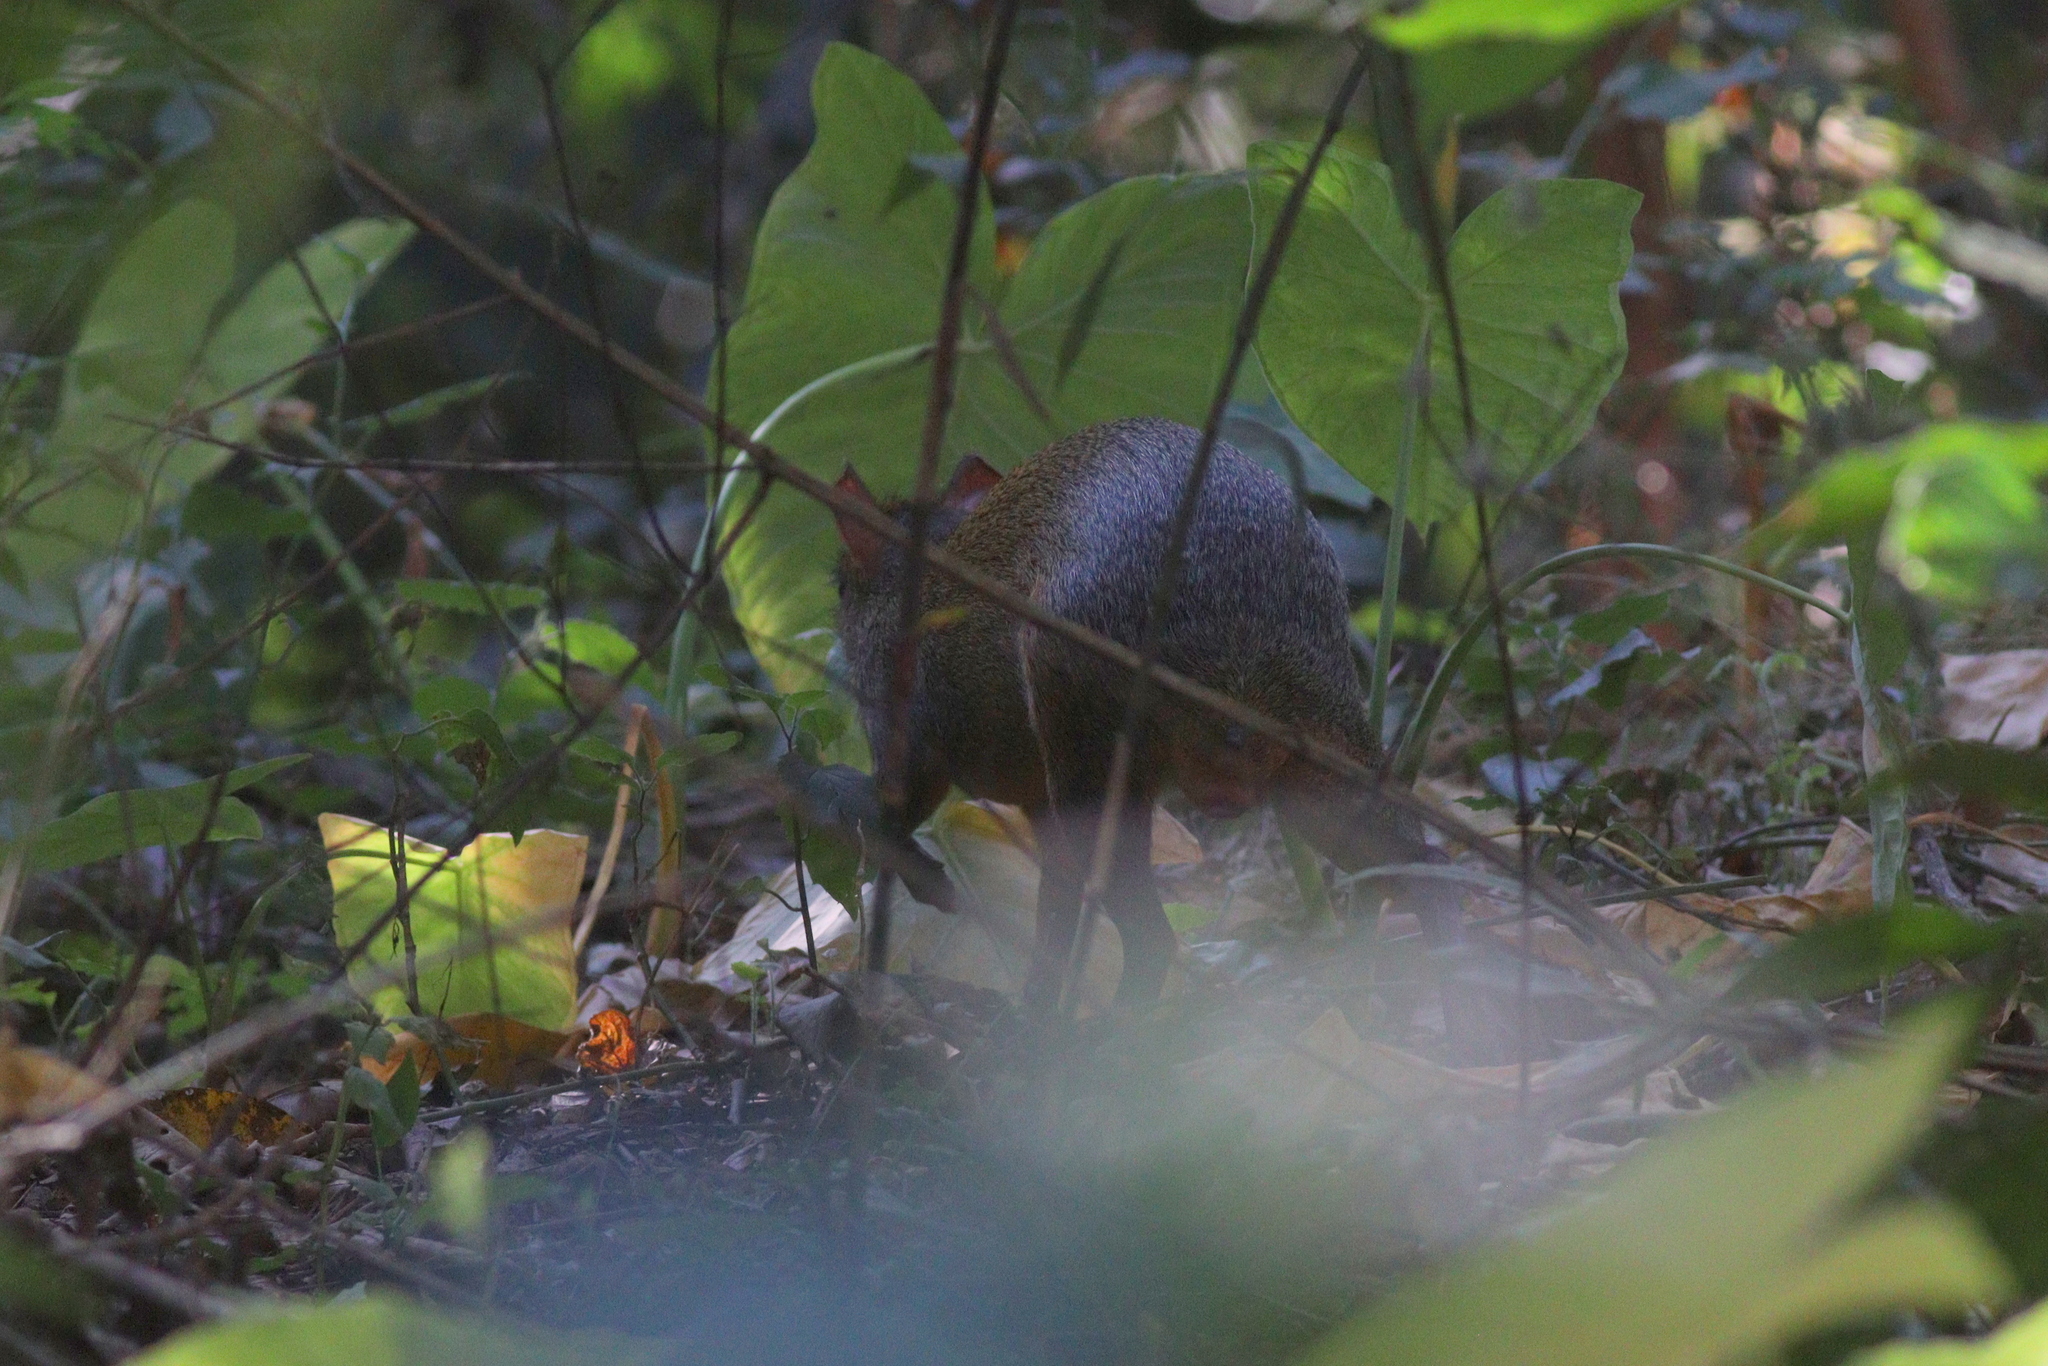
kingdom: Animalia
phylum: Chordata
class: Mammalia
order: Rodentia
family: Dasyproctidae
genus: Dasyprocta
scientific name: Dasyprocta azarae
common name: Azara's agouti
